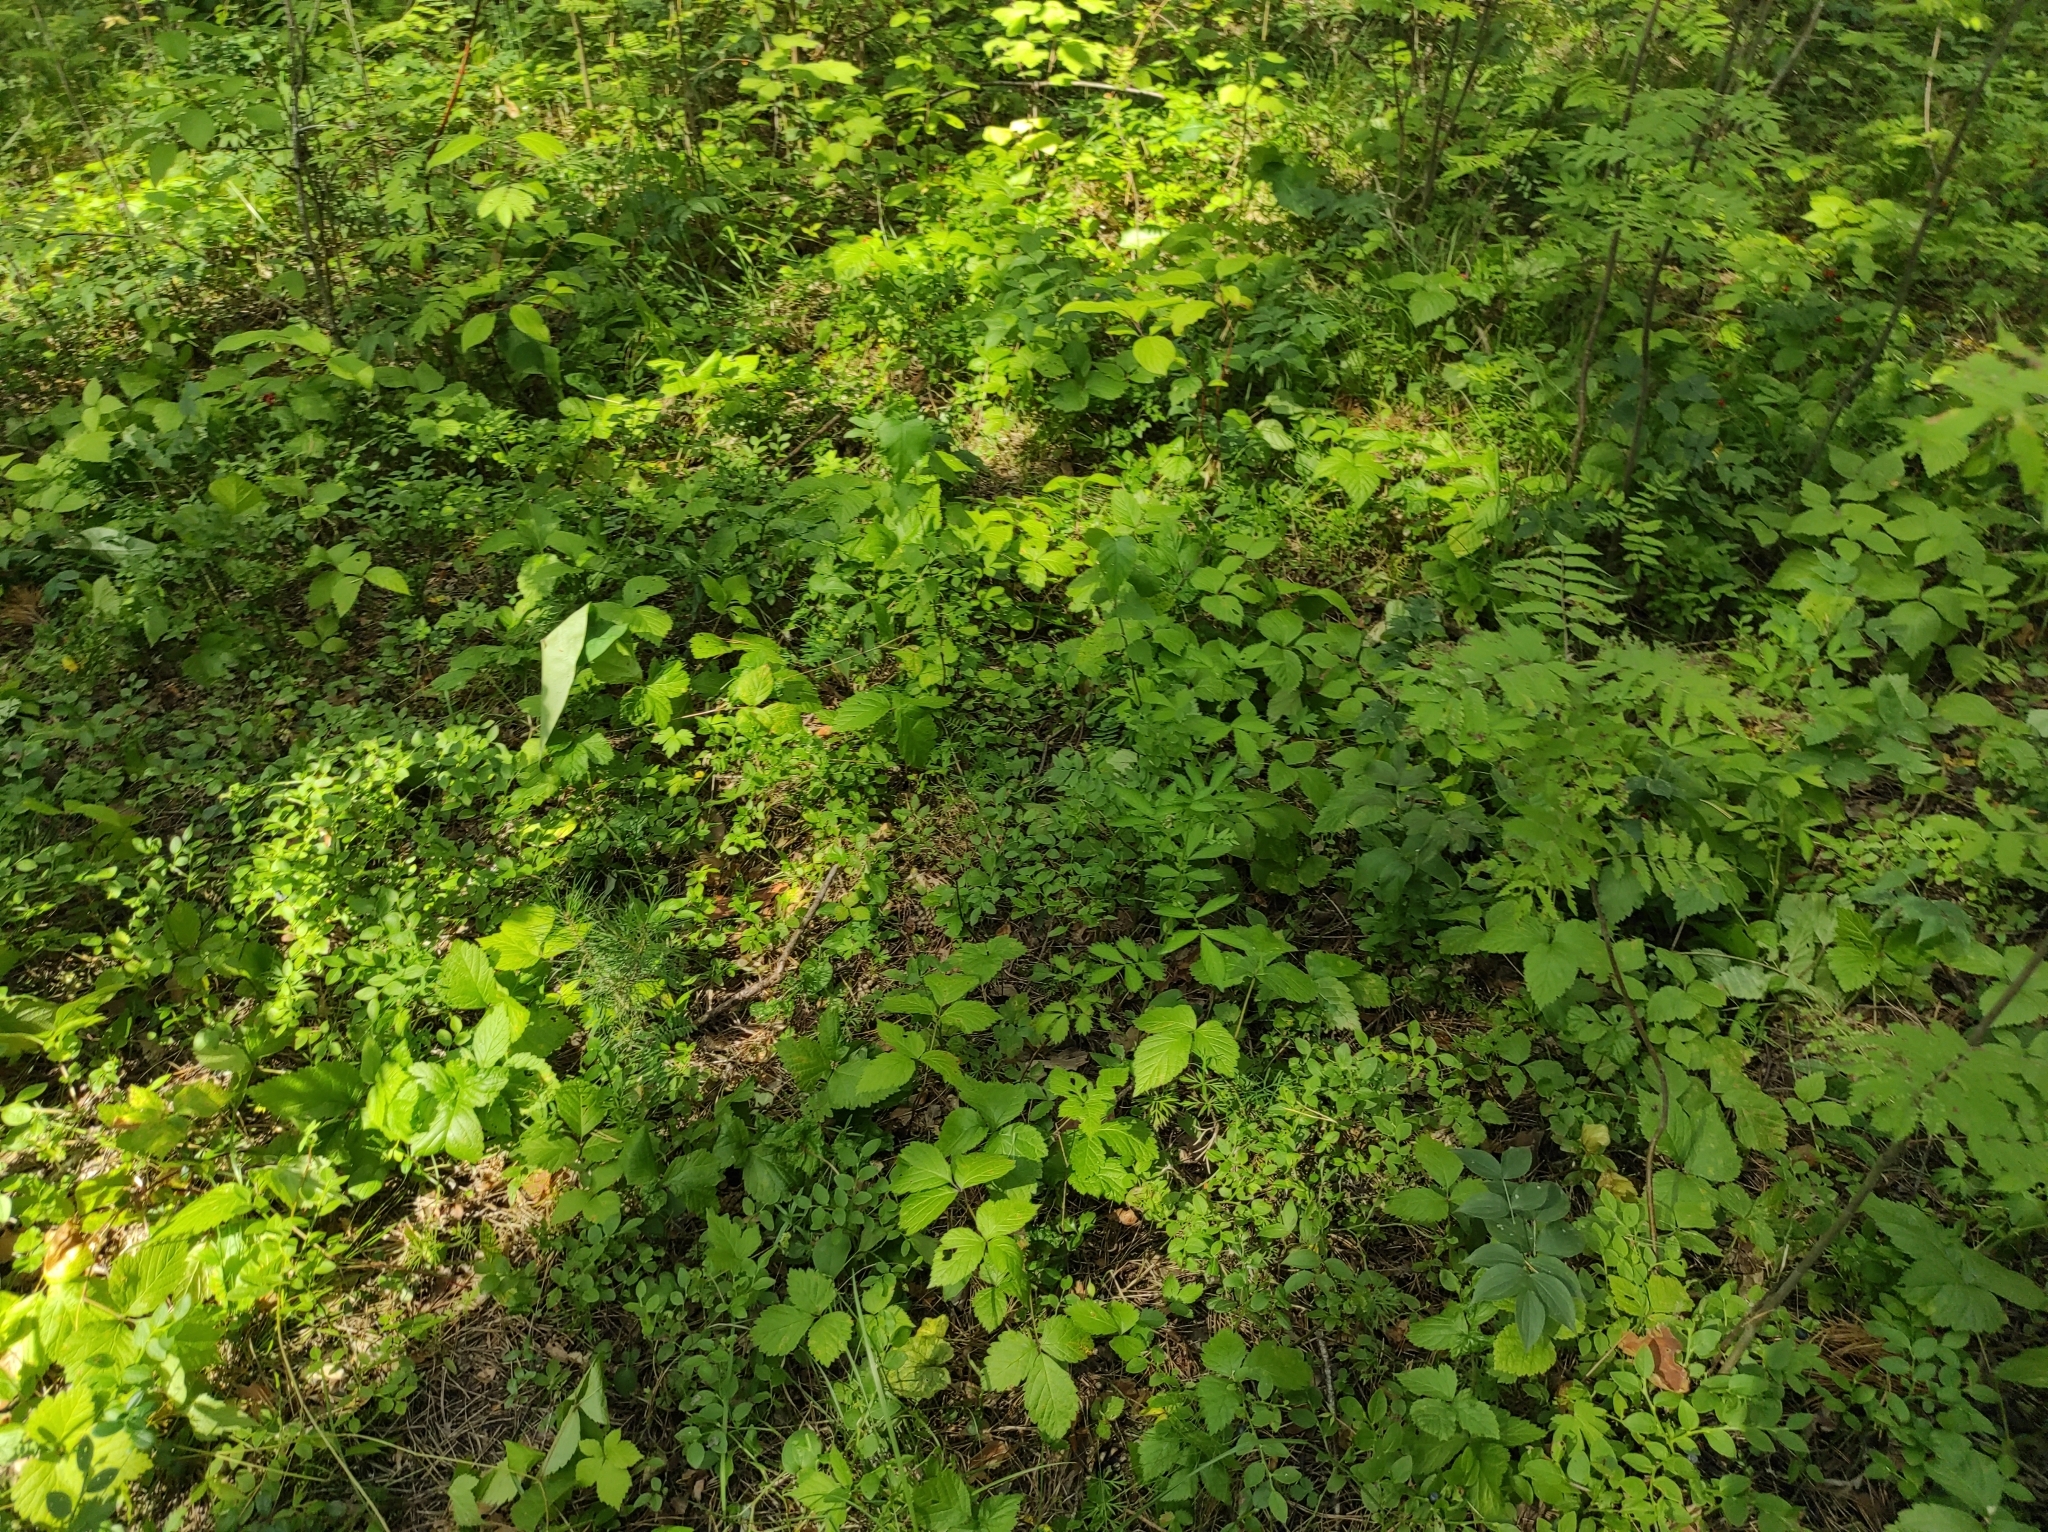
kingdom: Plantae
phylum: Tracheophyta
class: Magnoliopsida
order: Ericales
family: Ericaceae
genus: Vaccinium
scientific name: Vaccinium myrtillus
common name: Bilberry
